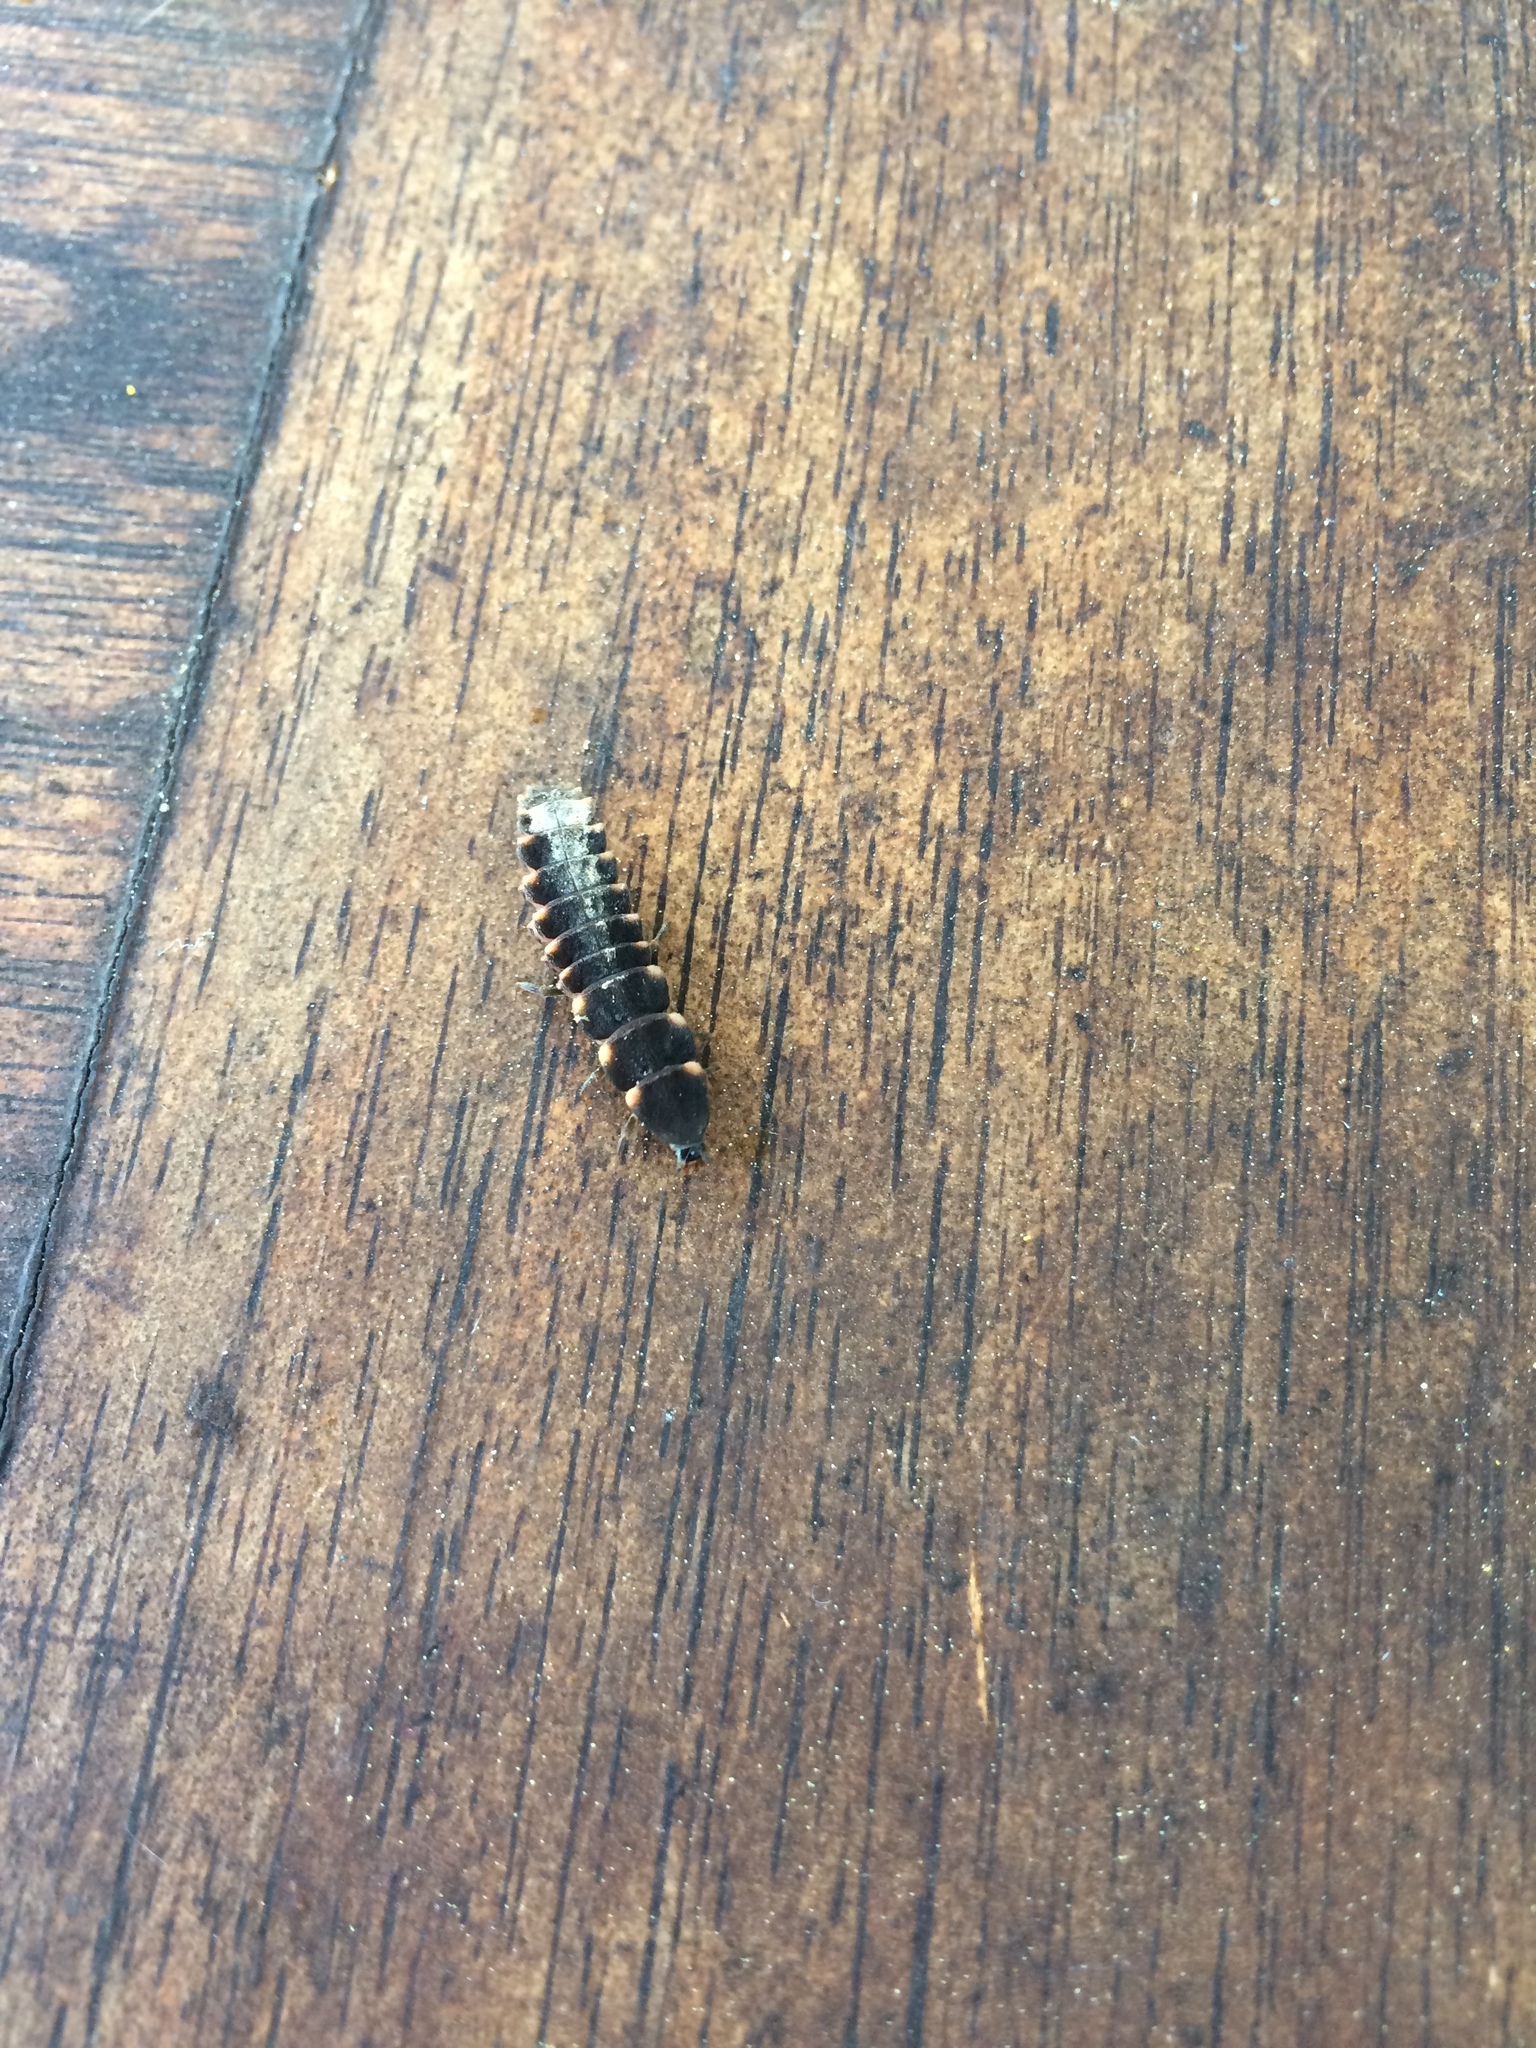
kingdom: Animalia
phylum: Arthropoda
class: Insecta
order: Coleoptera
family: Lampyridae
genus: Lampyris
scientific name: Lampyris noctiluca
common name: Glow-worm
